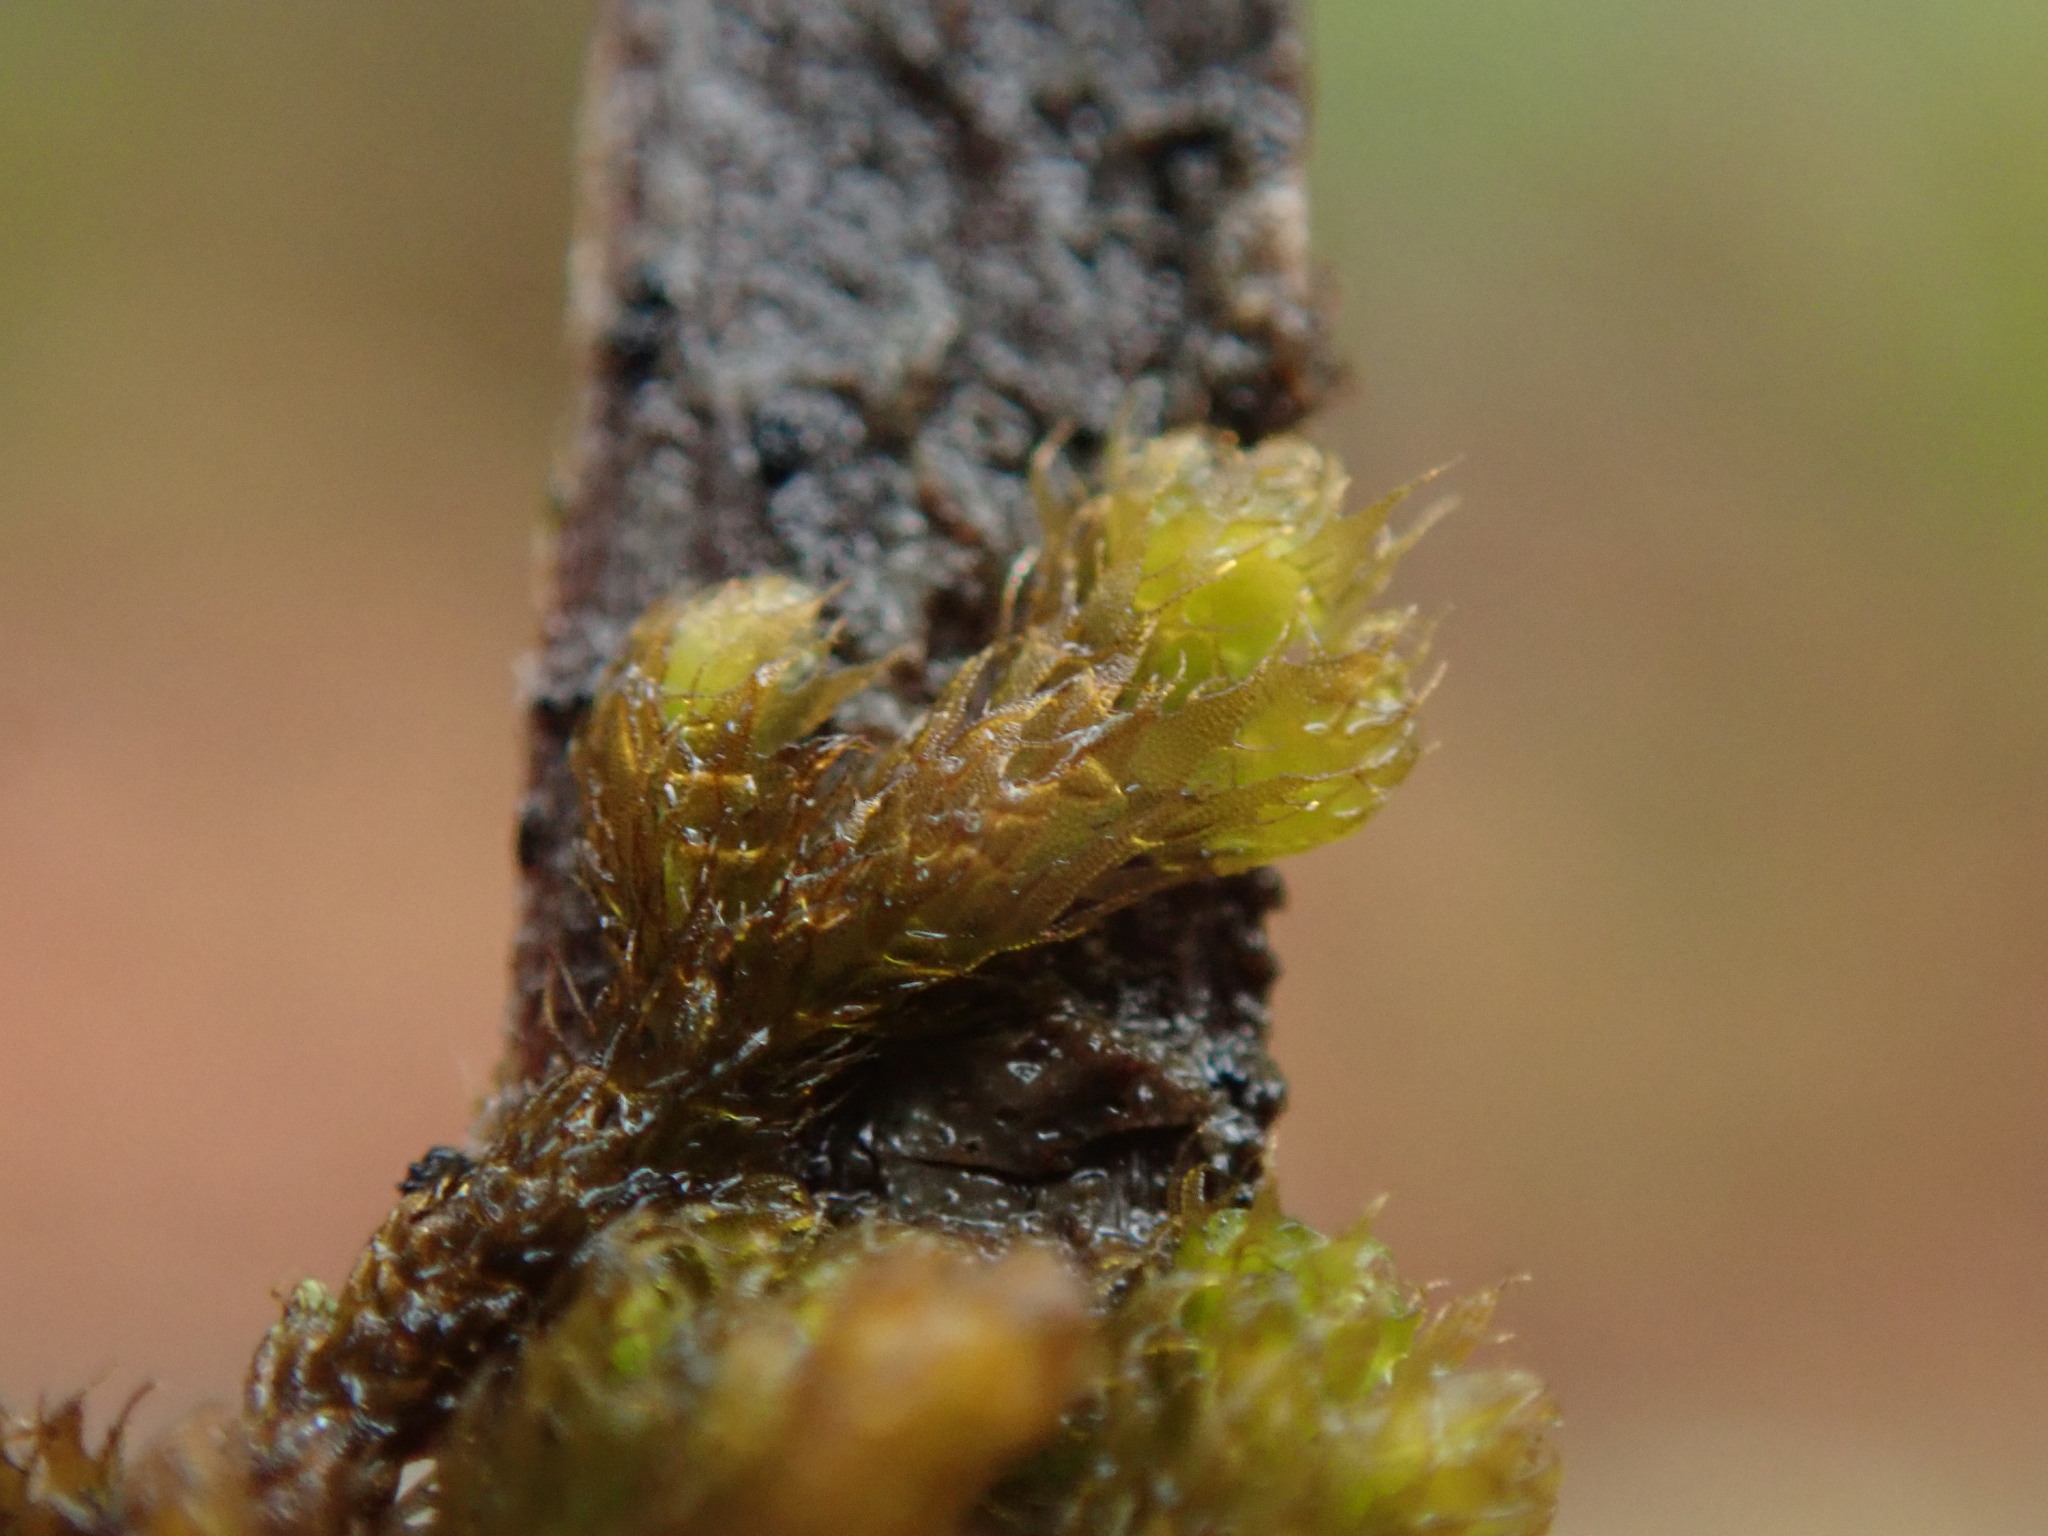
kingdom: Plantae
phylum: Marchantiophyta
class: Jungermanniopsida
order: Ptilidiales
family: Ptilidiaceae
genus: Ptilidium
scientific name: Ptilidium californicum
